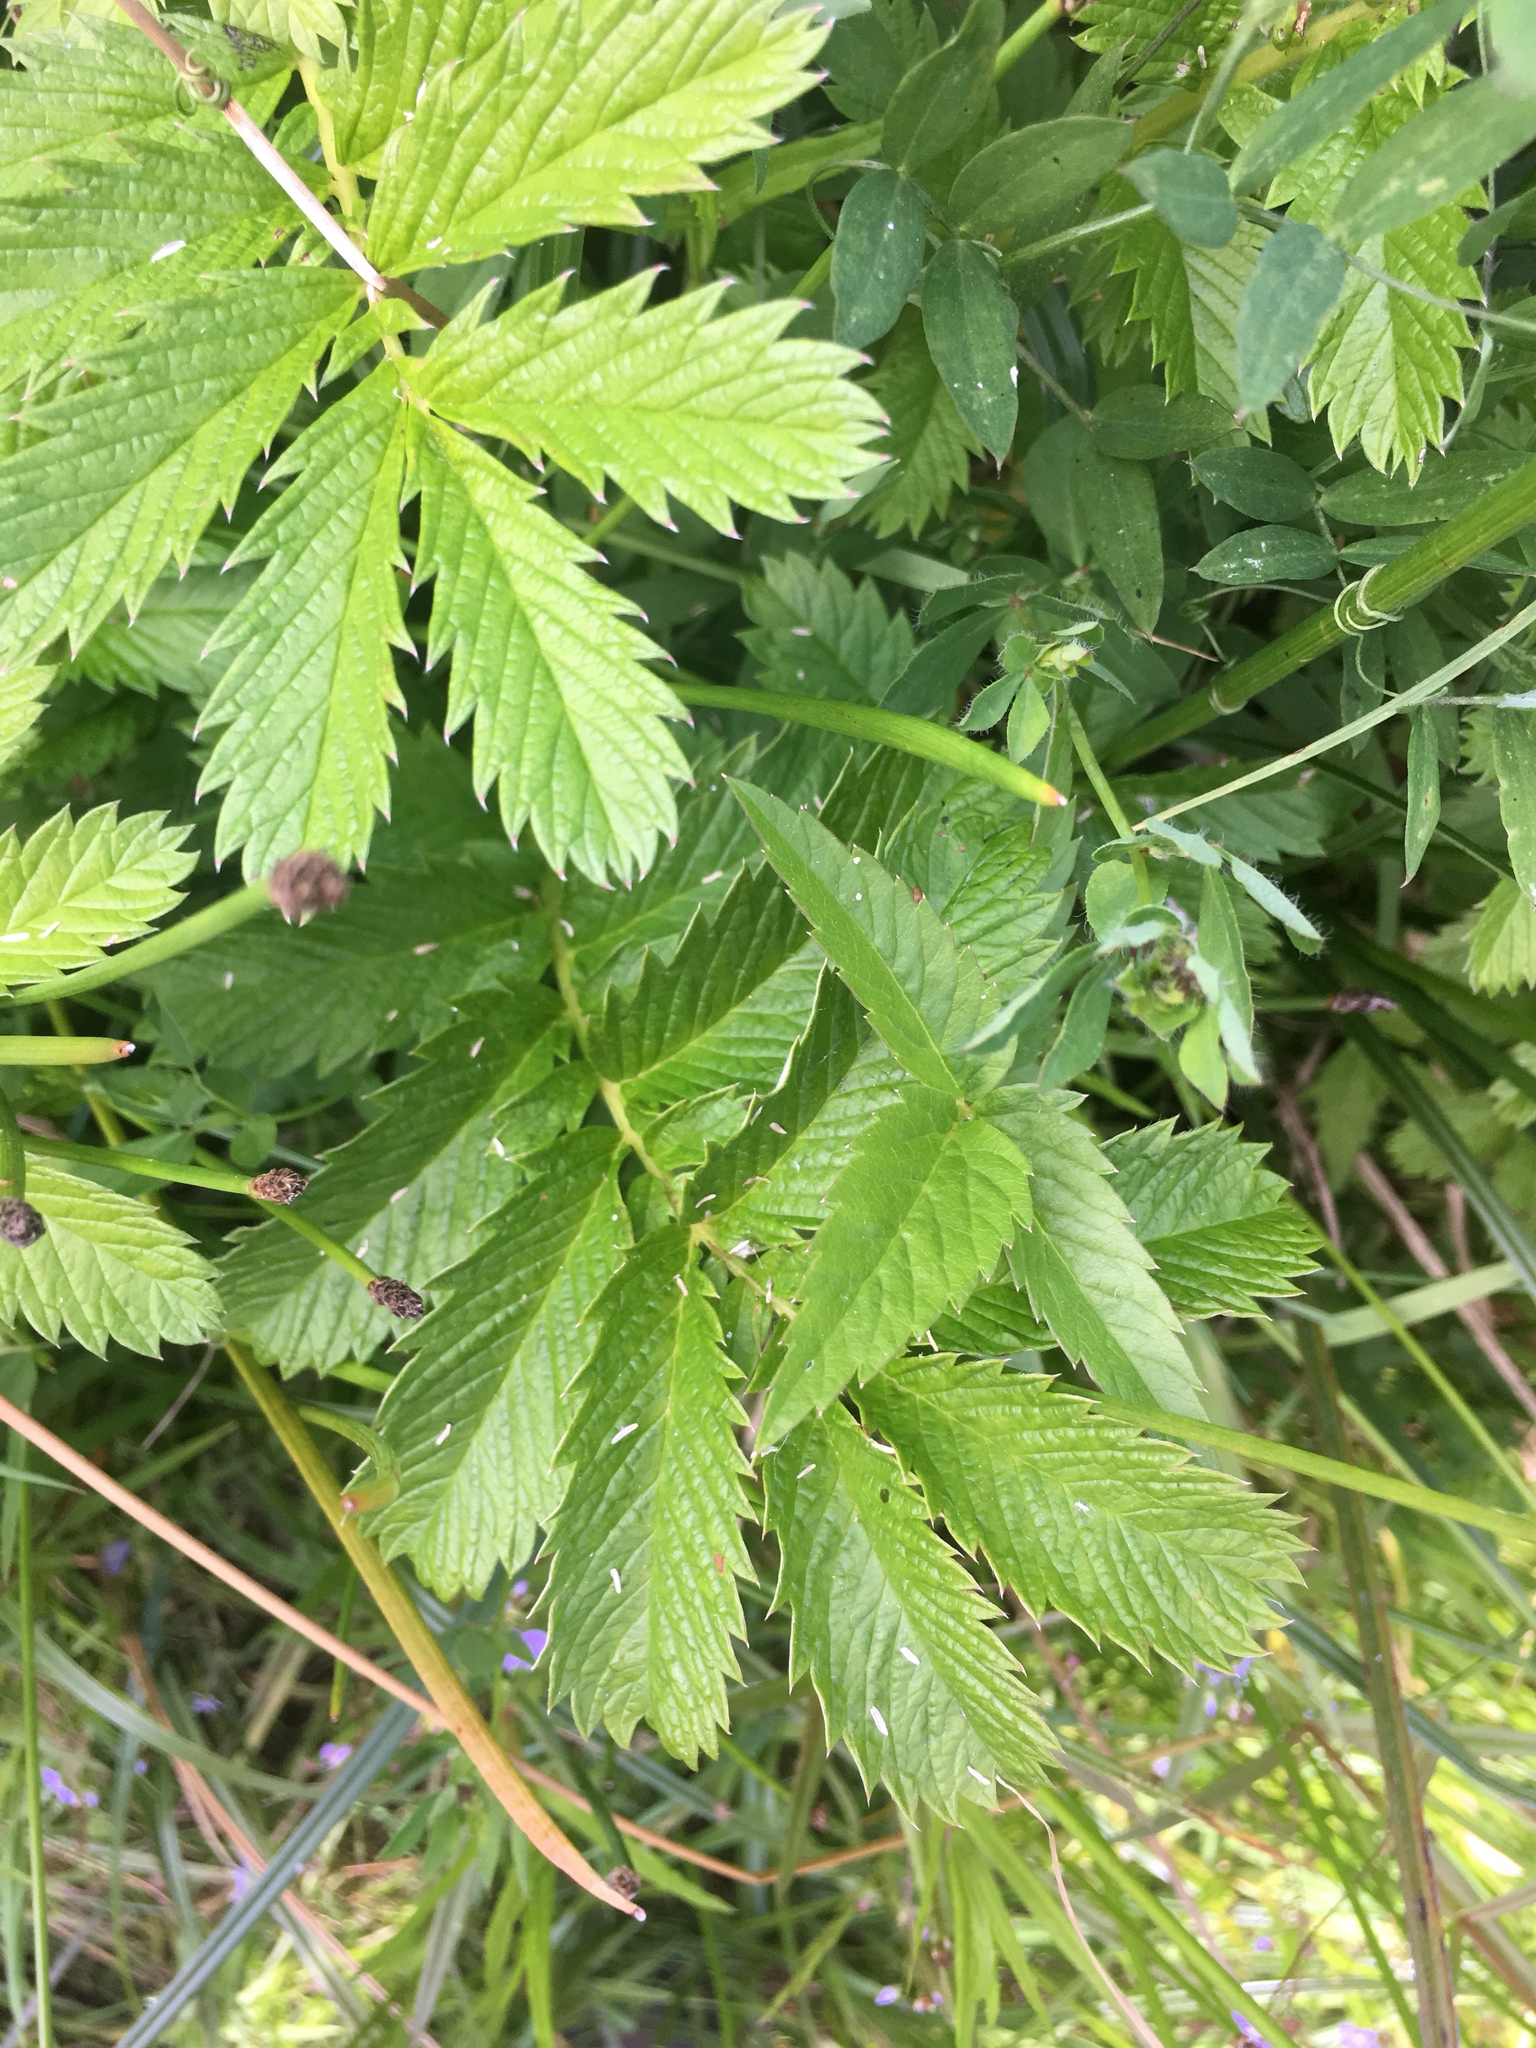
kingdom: Plantae
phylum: Tracheophyta
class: Magnoliopsida
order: Rosales
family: Rosaceae
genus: Argentina
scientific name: Argentina anserina
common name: Common silverweed
